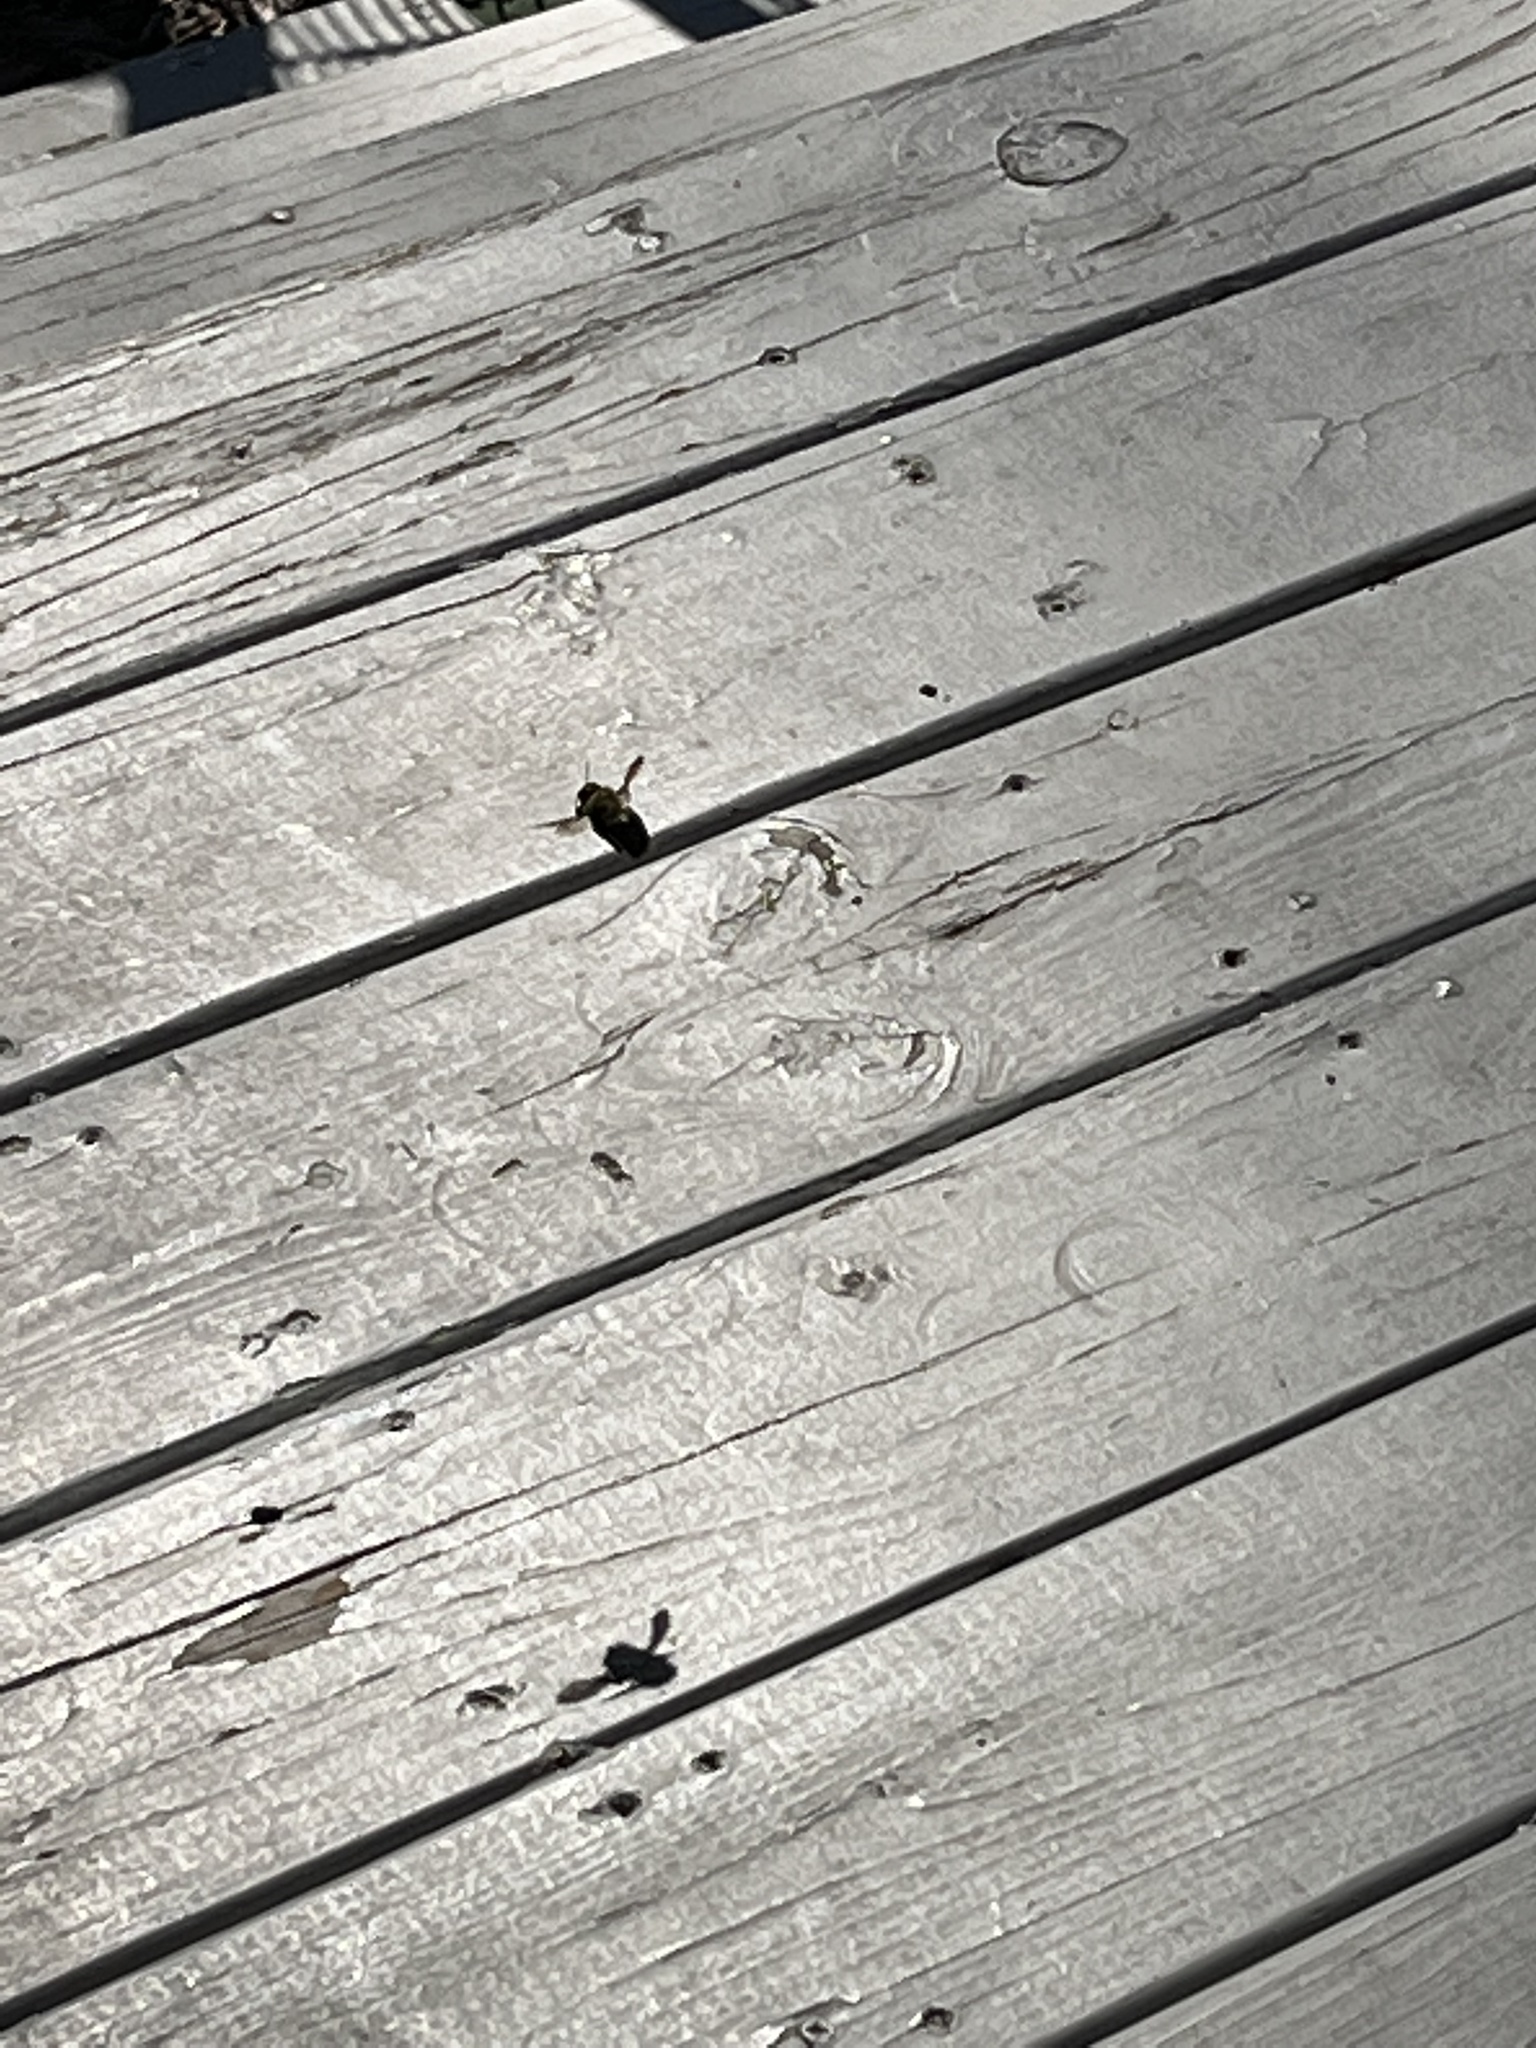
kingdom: Animalia
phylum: Arthropoda
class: Insecta
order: Hymenoptera
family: Apidae
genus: Xylocopa
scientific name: Xylocopa virginica
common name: Carpenter bee
